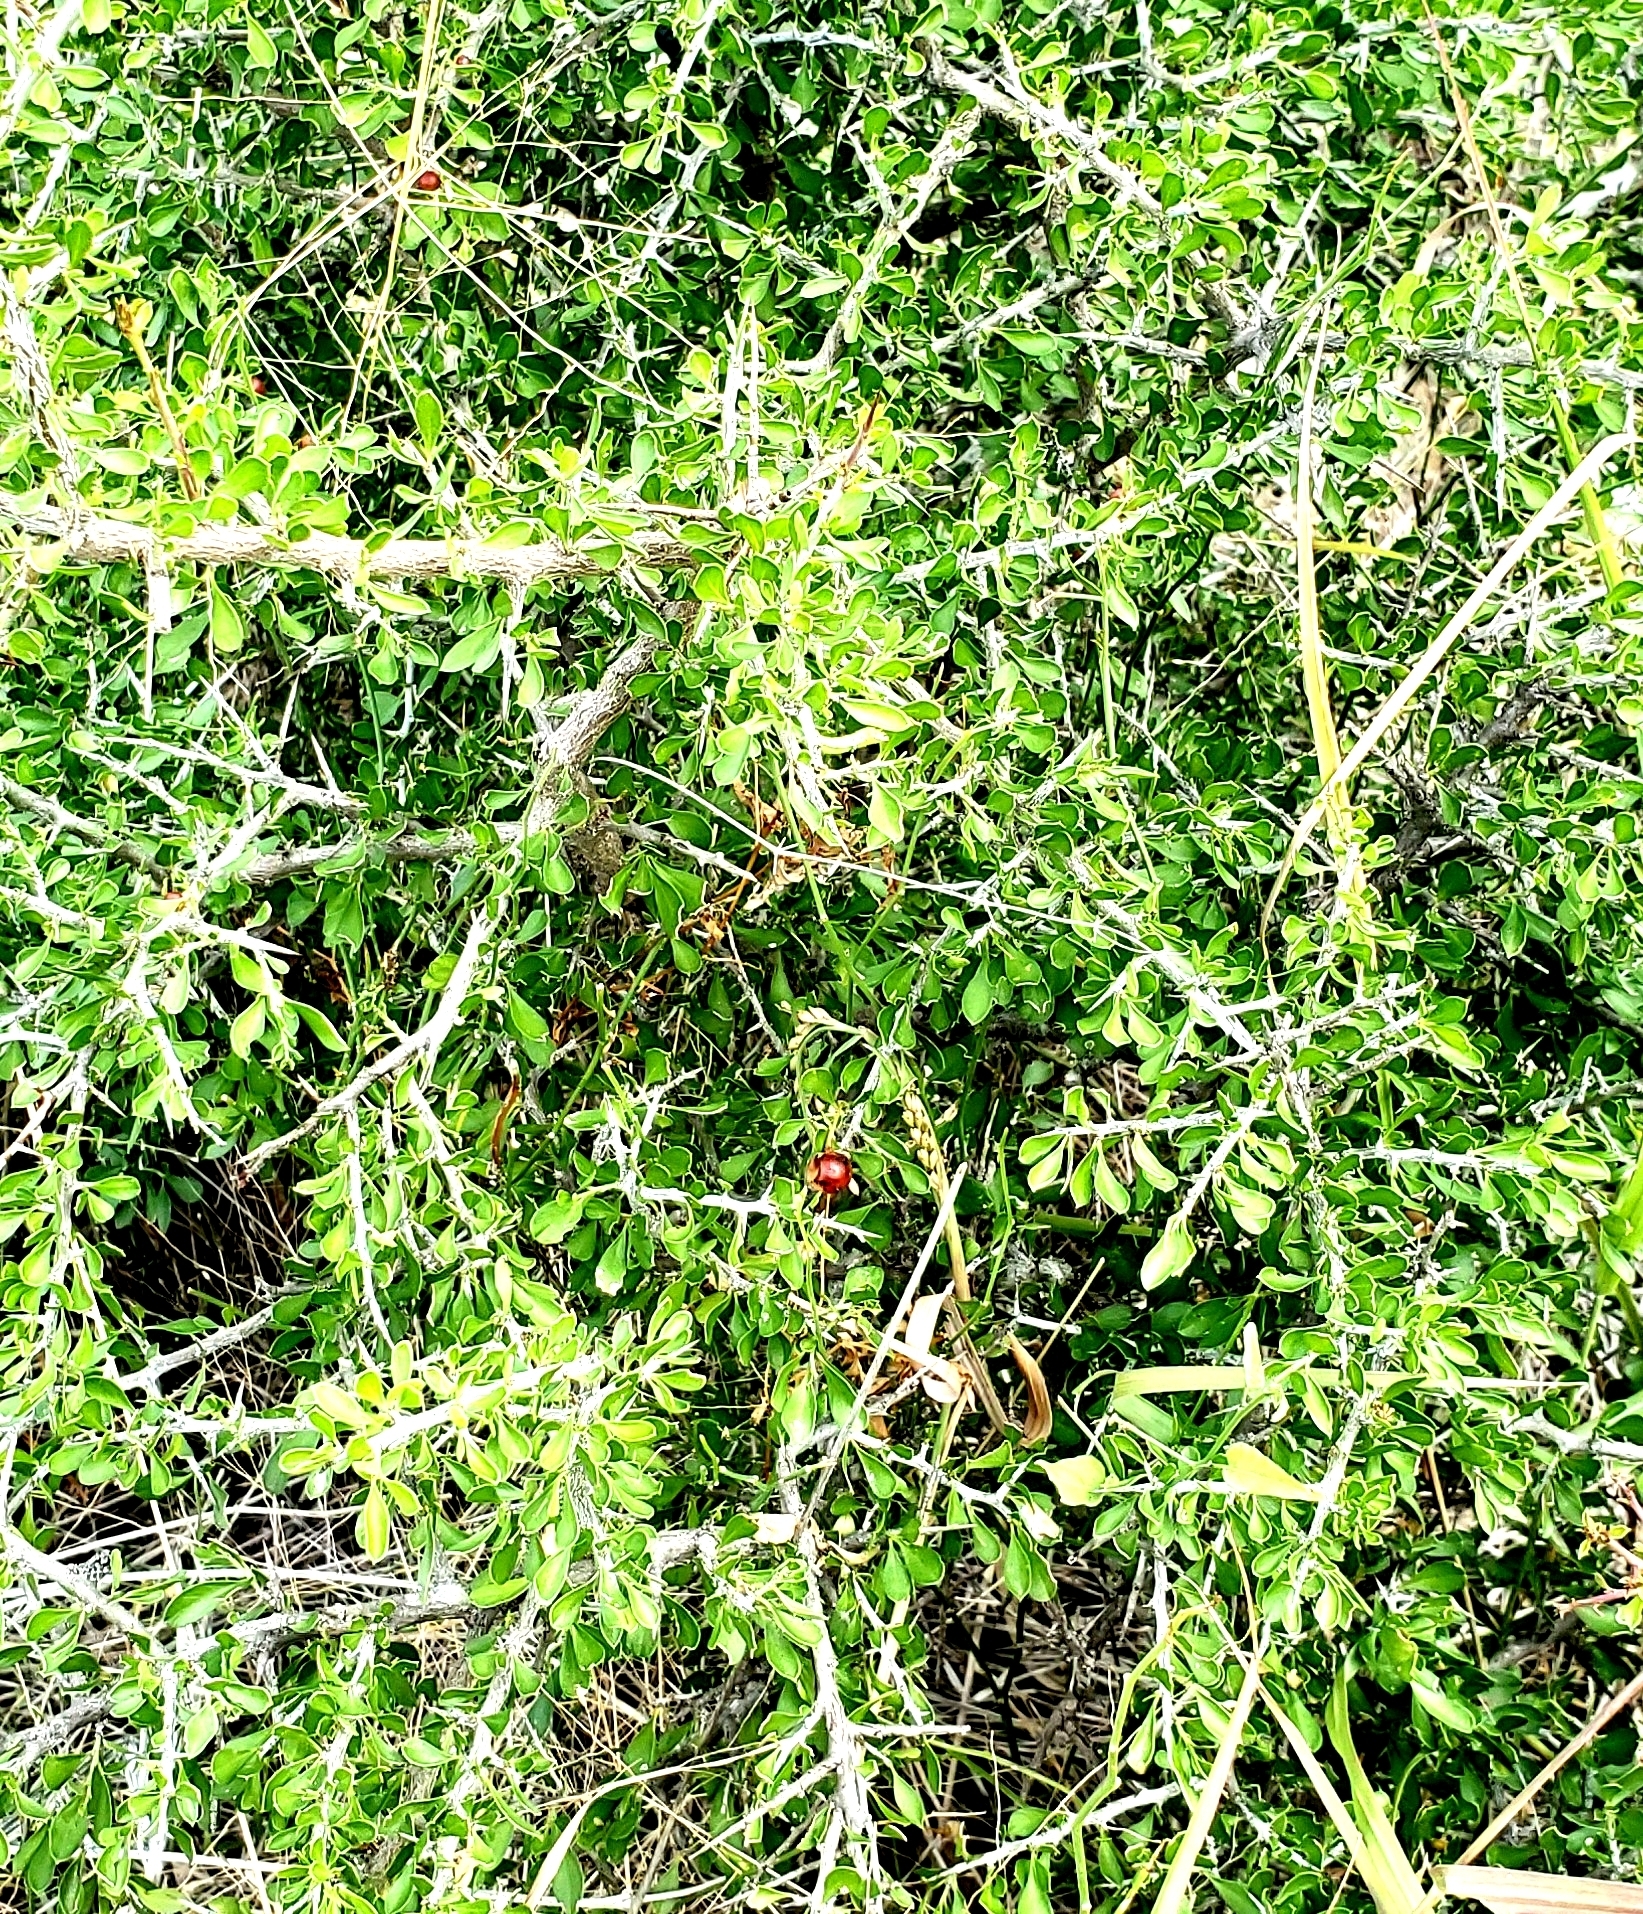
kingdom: Plantae
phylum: Tracheophyta
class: Magnoliopsida
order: Rosales
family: Rhamnaceae
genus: Condalia
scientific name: Condalia viridis
